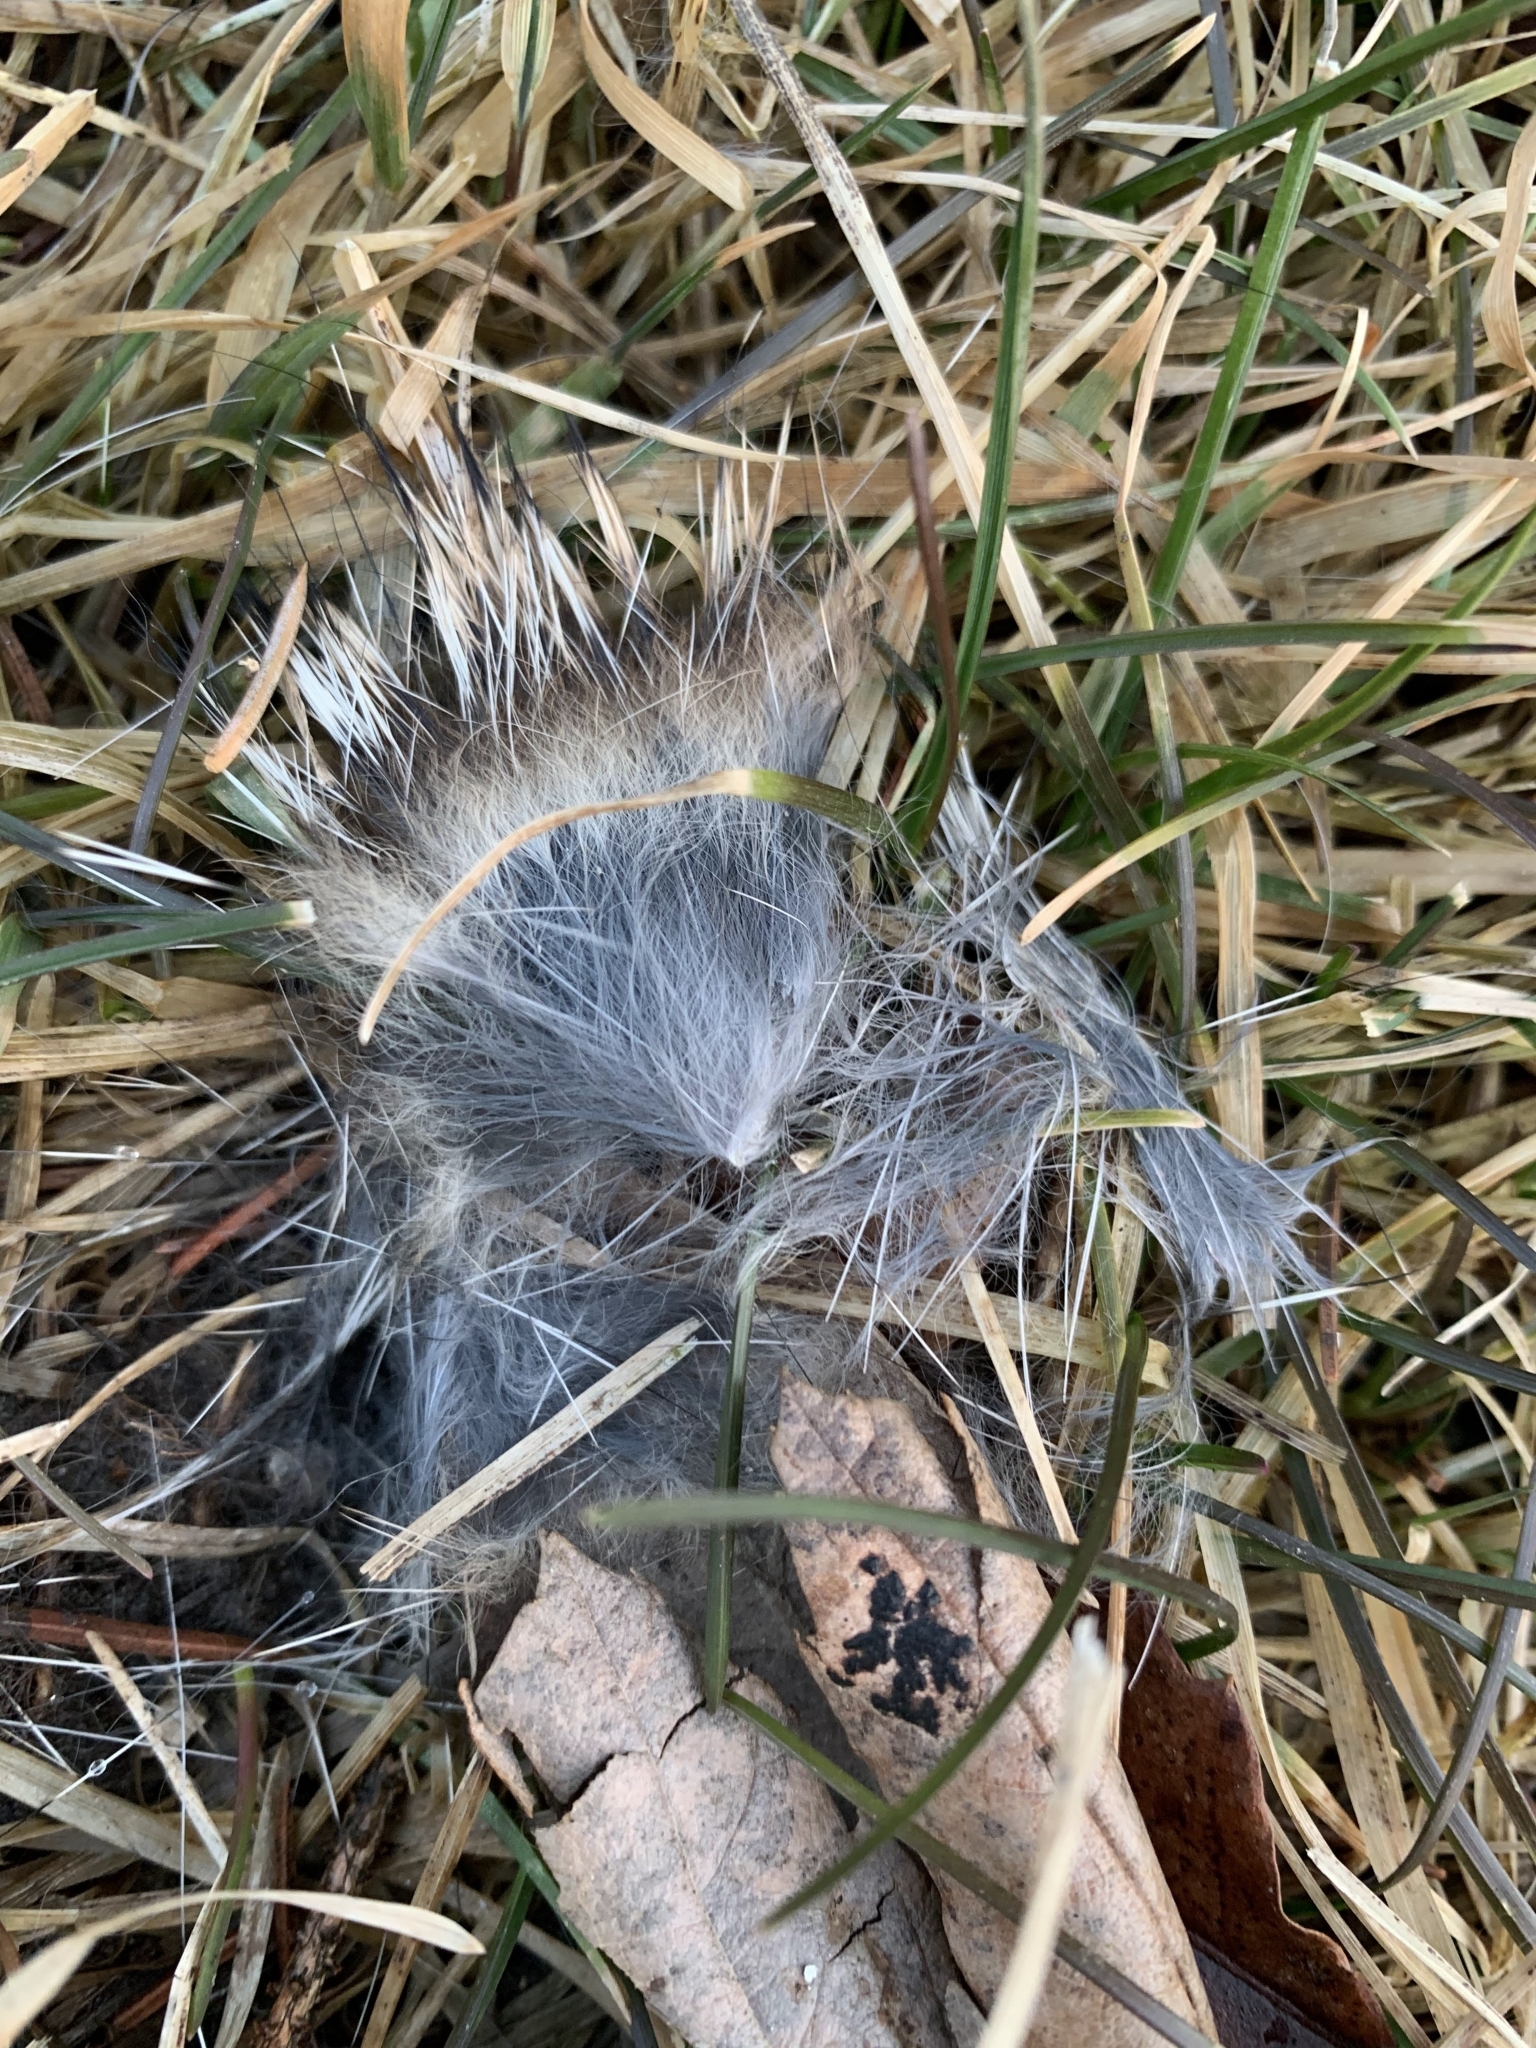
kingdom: Animalia
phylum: Chordata
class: Mammalia
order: Lagomorpha
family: Leporidae
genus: Sylvilagus
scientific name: Sylvilagus floridanus
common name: Eastern cottontail
